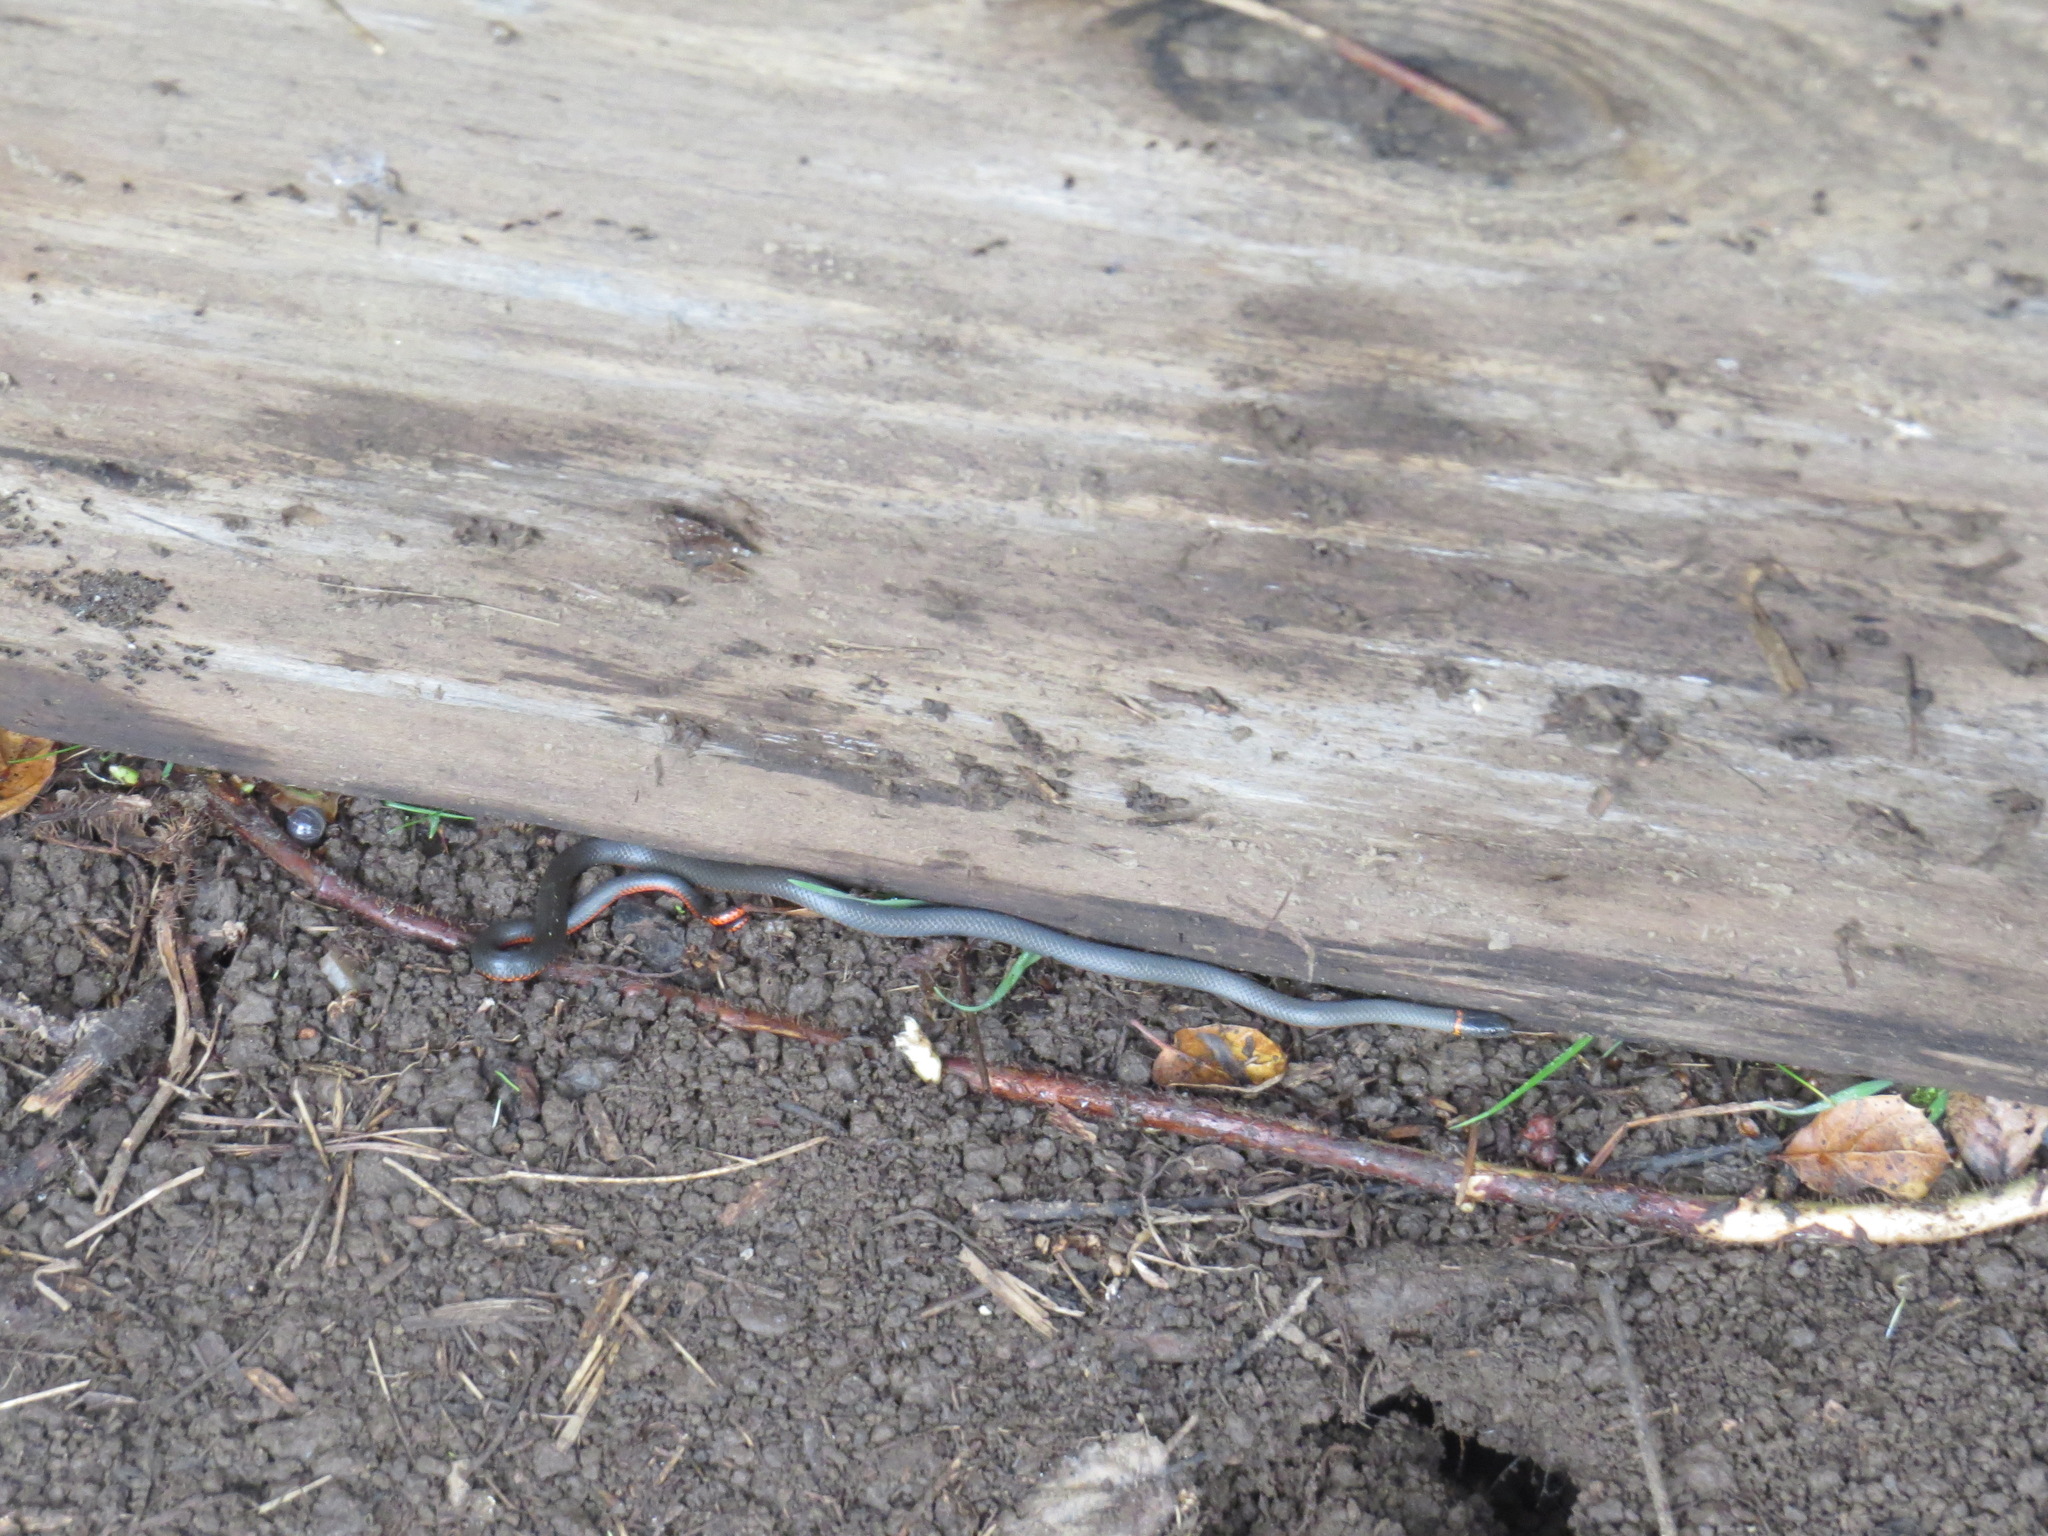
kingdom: Animalia
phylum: Chordata
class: Squamata
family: Colubridae
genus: Diadophis
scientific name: Diadophis punctatus
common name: Ringneck snake
